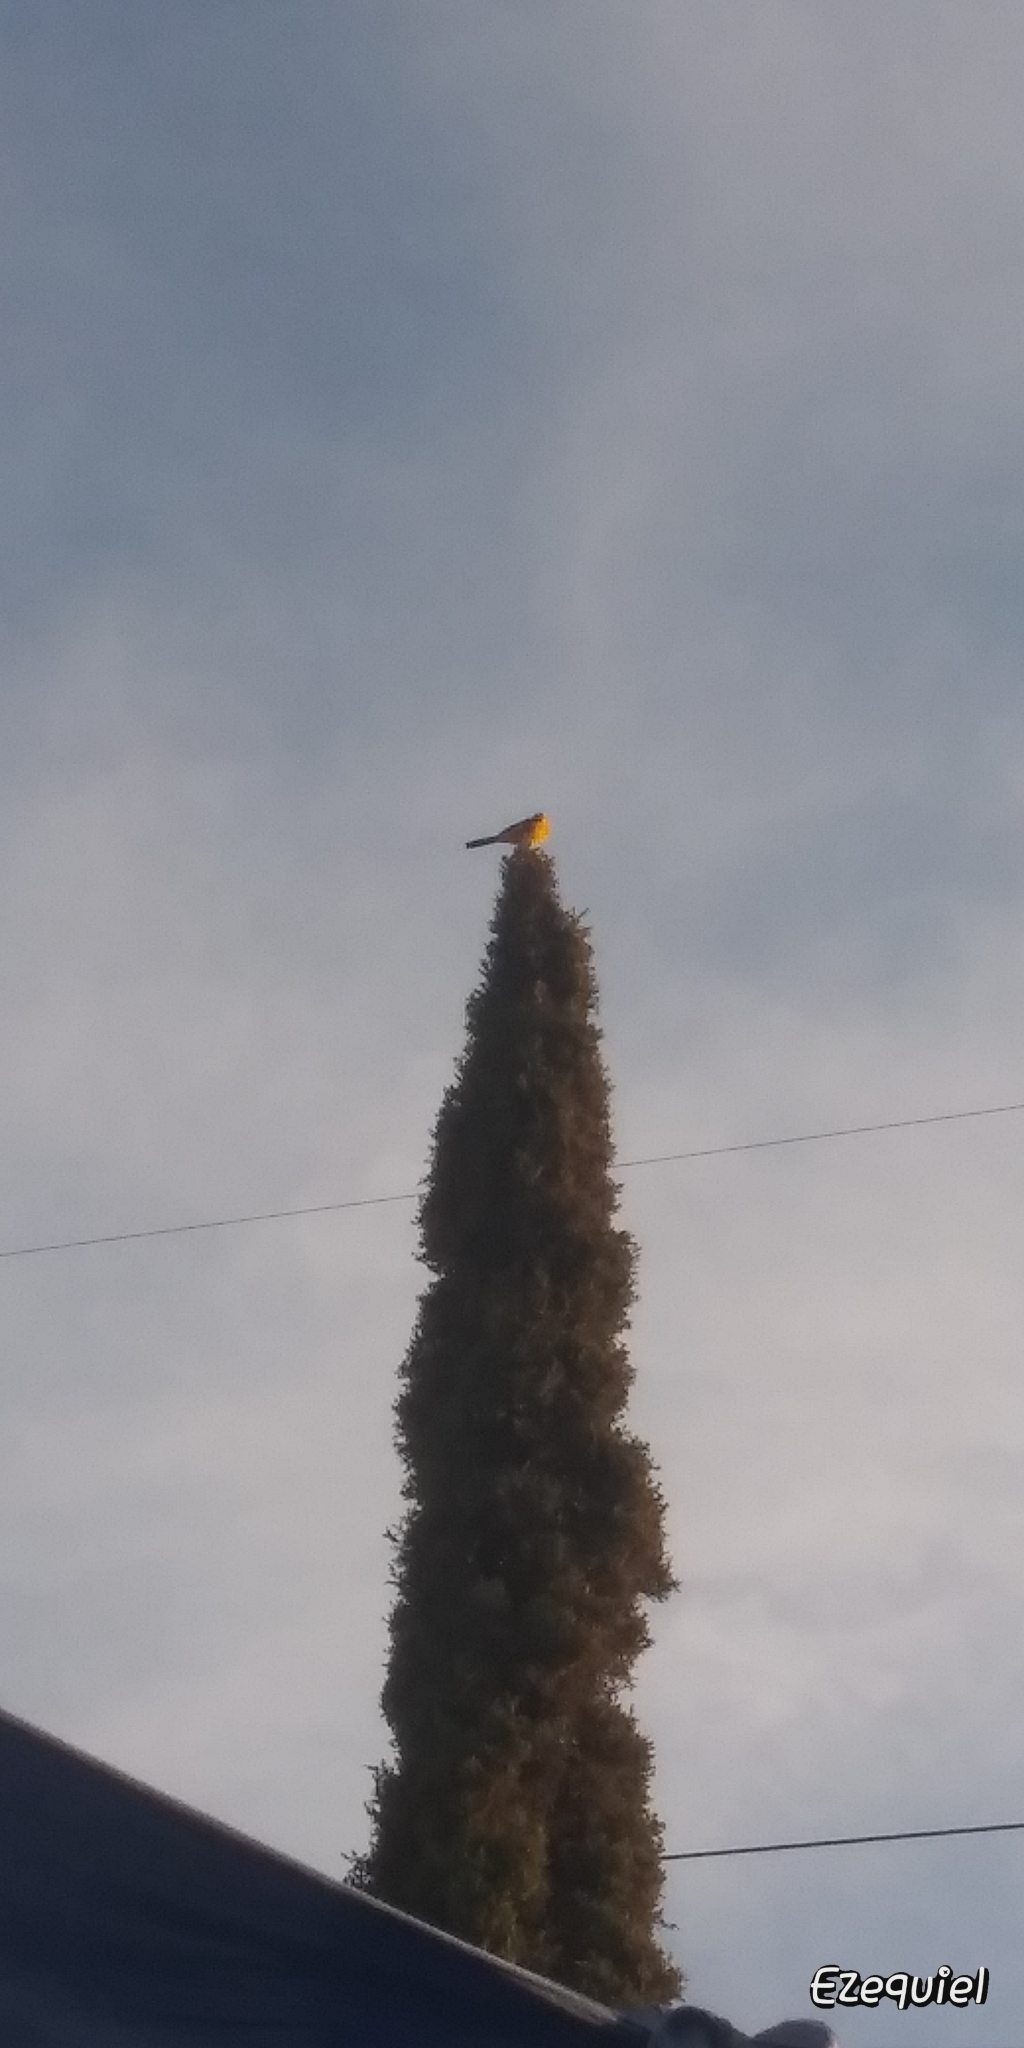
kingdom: Animalia
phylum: Chordata
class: Aves
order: Passeriformes
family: Icteridae
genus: Icterus
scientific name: Icterus cucullatus
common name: Hooded oriole
